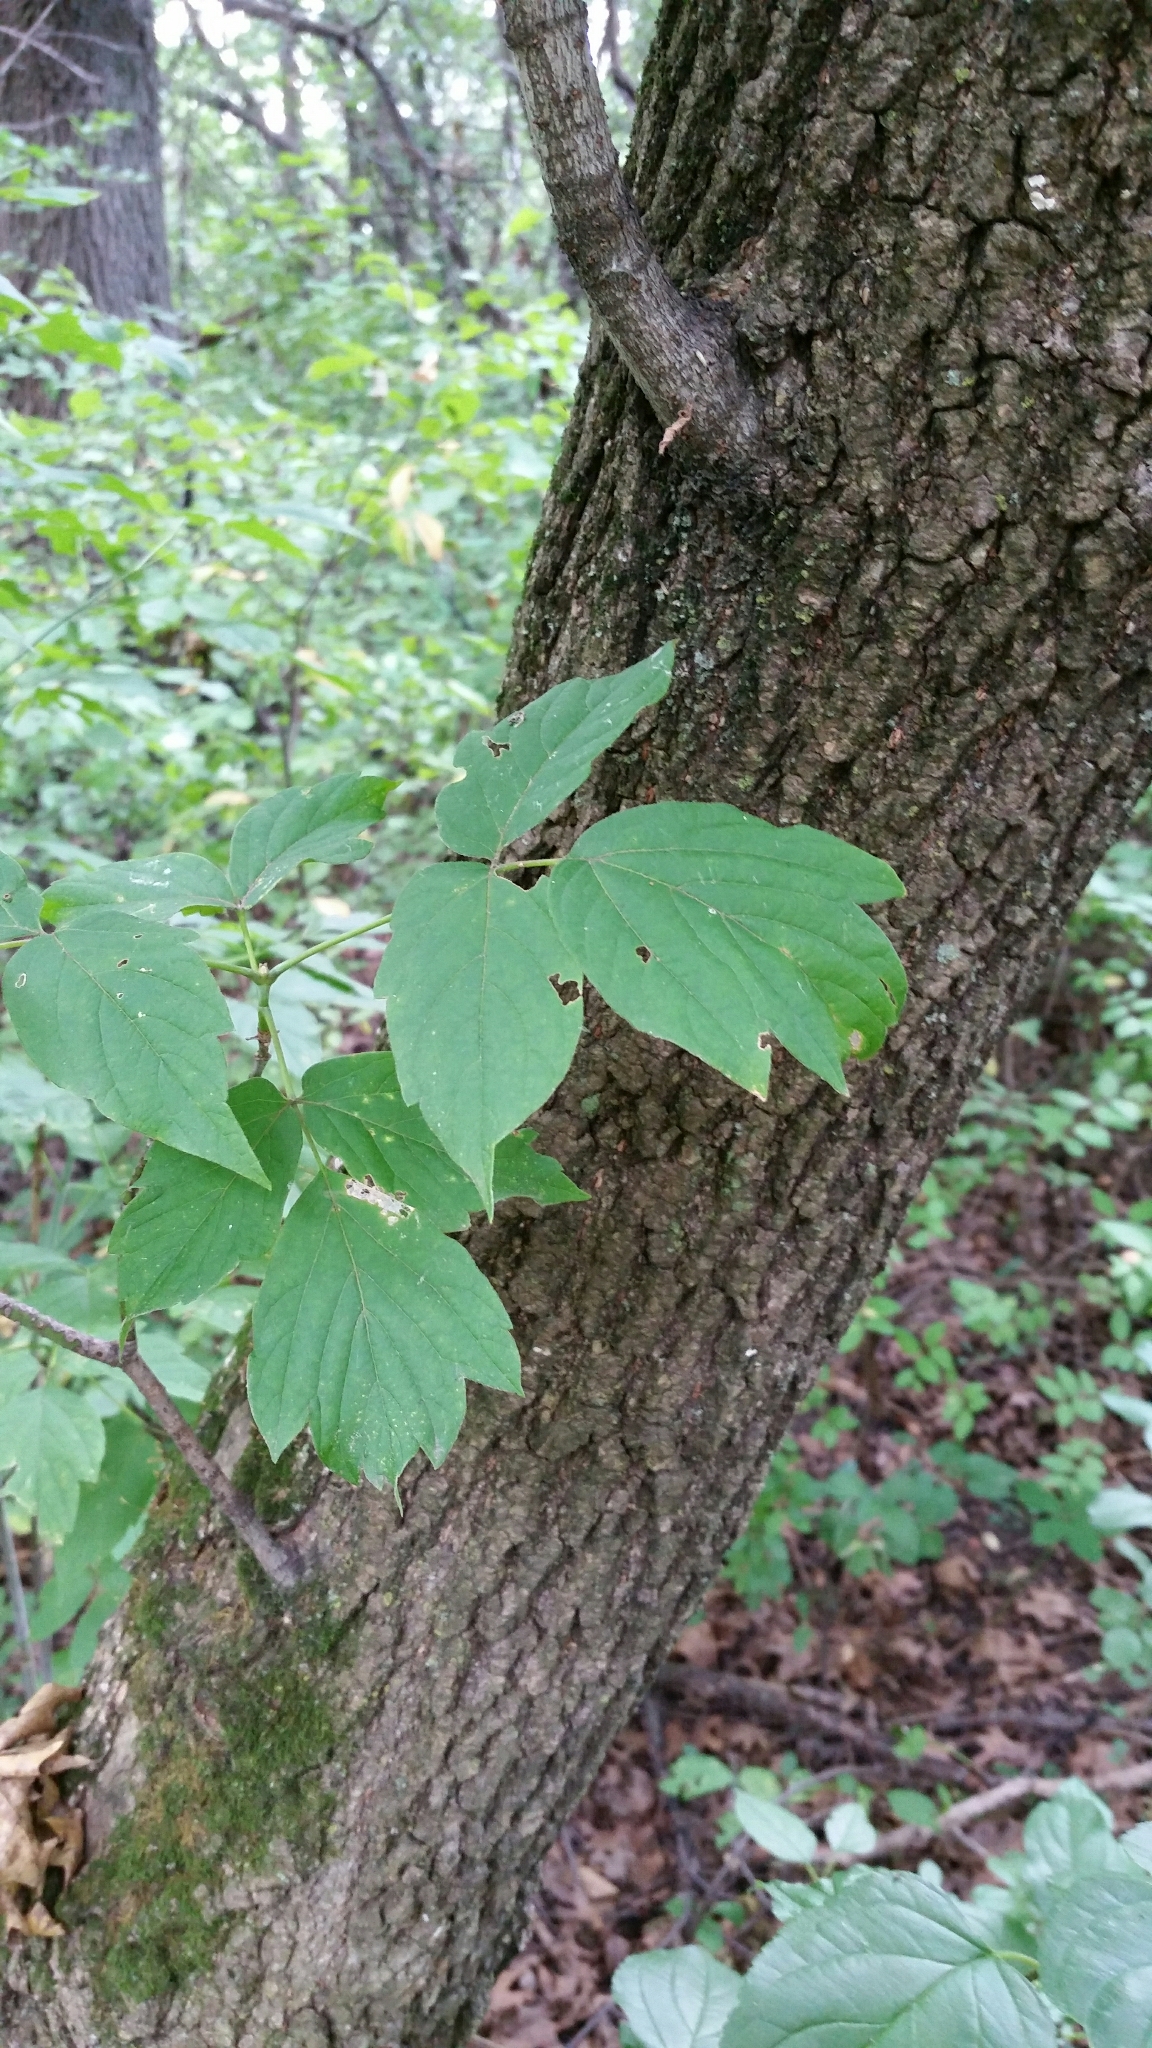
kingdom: Plantae
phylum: Tracheophyta
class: Magnoliopsida
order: Sapindales
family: Sapindaceae
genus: Acer
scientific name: Acer negundo
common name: Ashleaf maple
